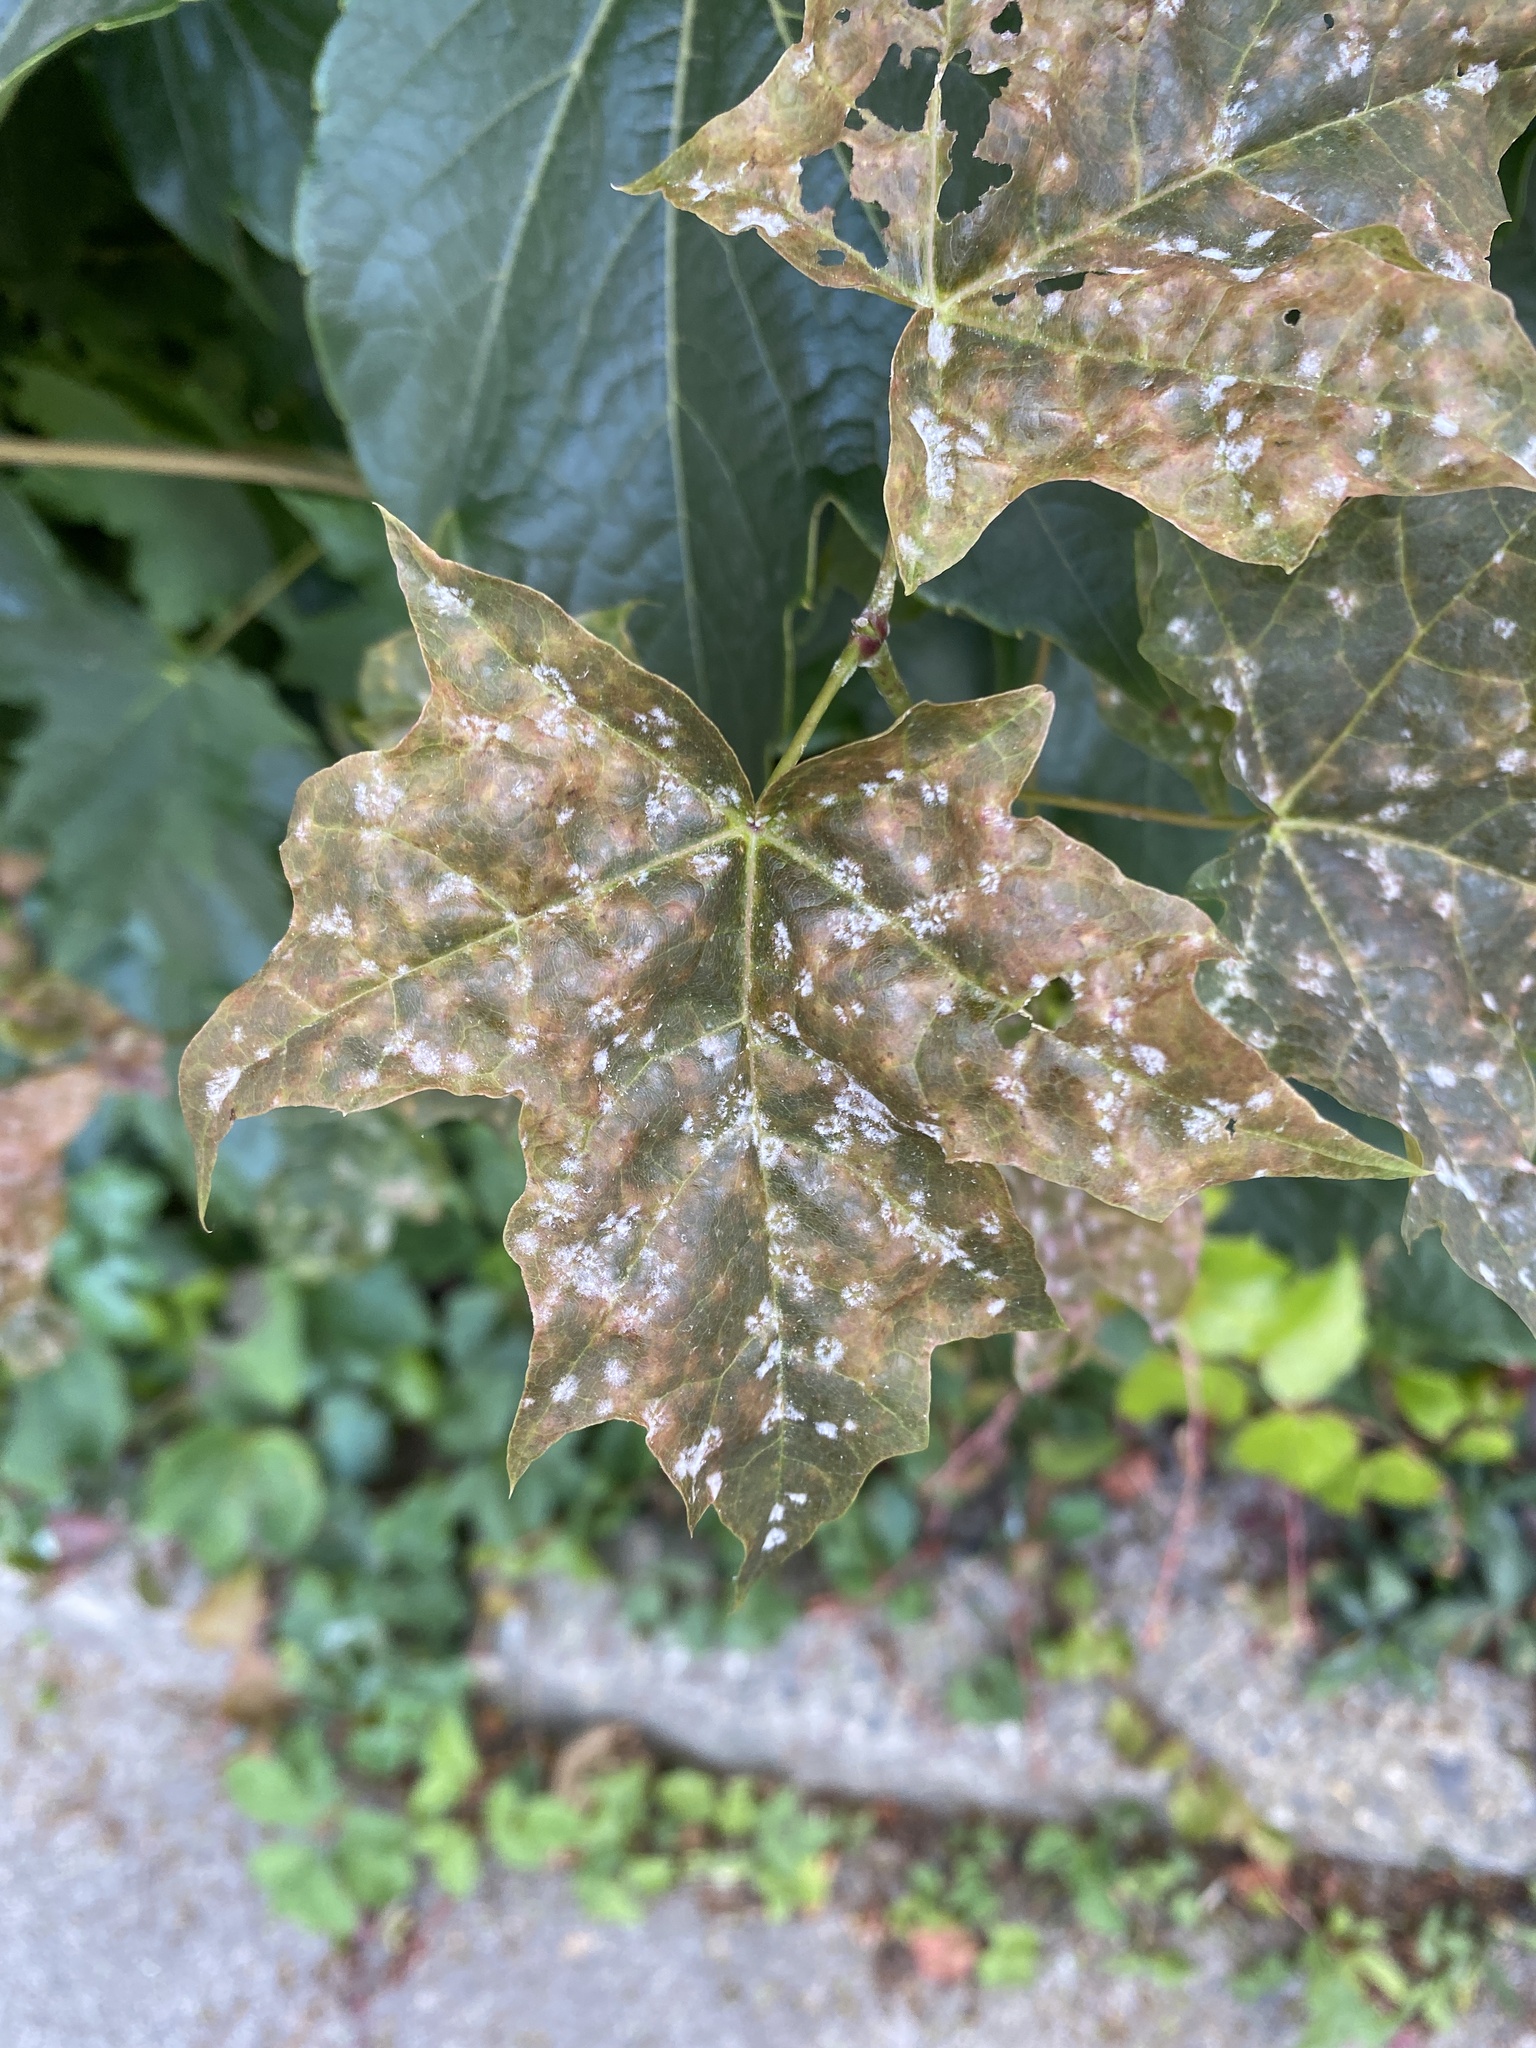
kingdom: Plantae
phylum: Tracheophyta
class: Magnoliopsida
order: Sapindales
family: Sapindaceae
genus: Acer
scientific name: Acer platanoides
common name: Norway maple
